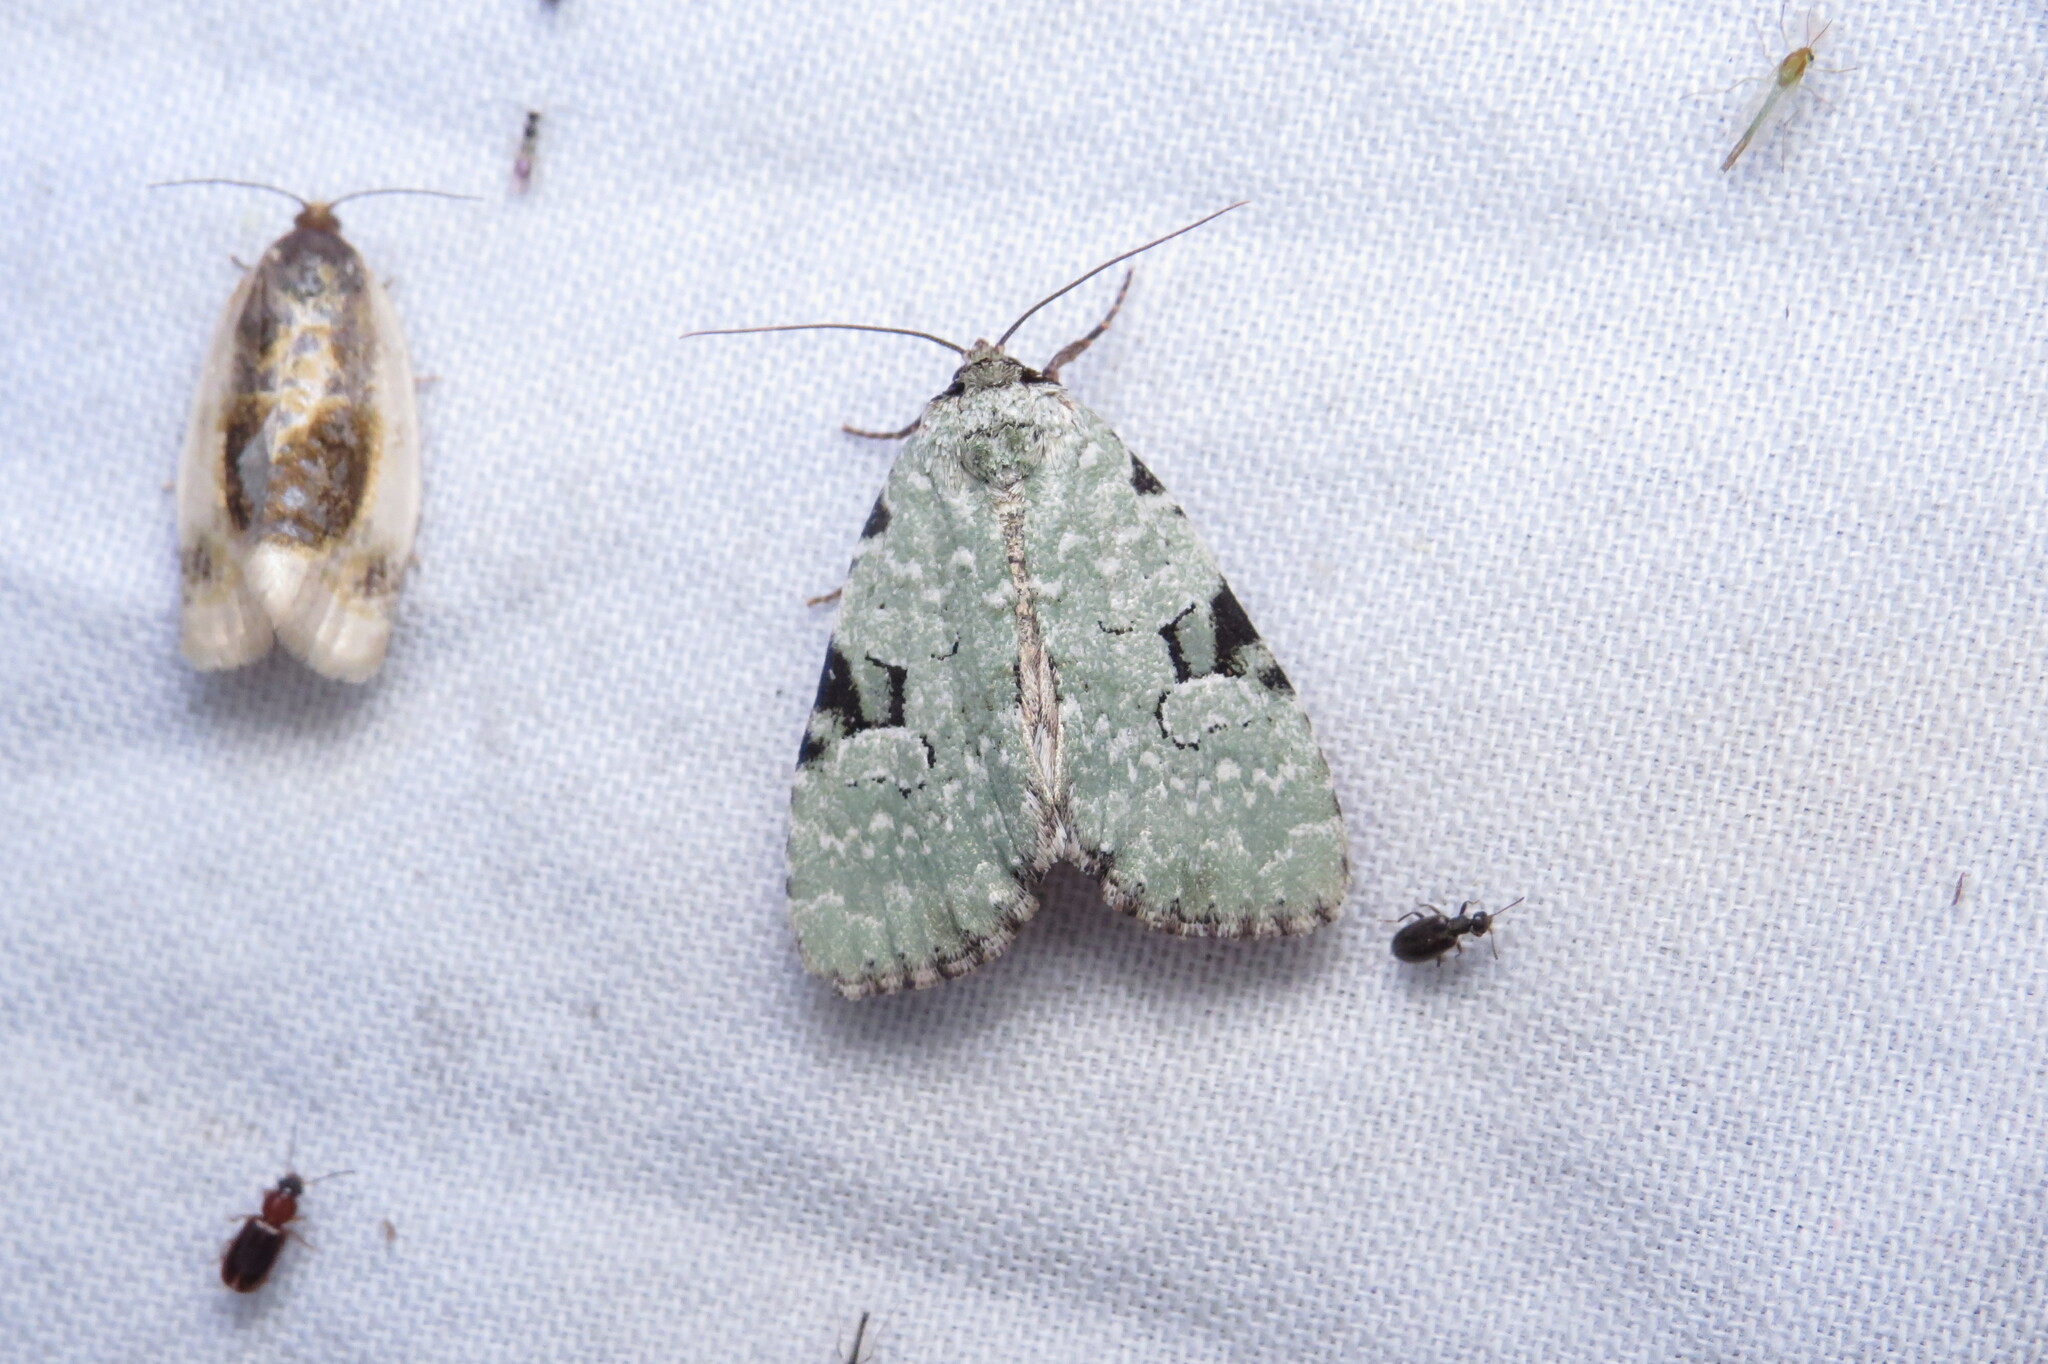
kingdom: Animalia
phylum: Arthropoda
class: Insecta
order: Lepidoptera
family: Noctuidae
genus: Leuconycta
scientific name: Leuconycta diphteroides
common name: Green leuconycta moth
